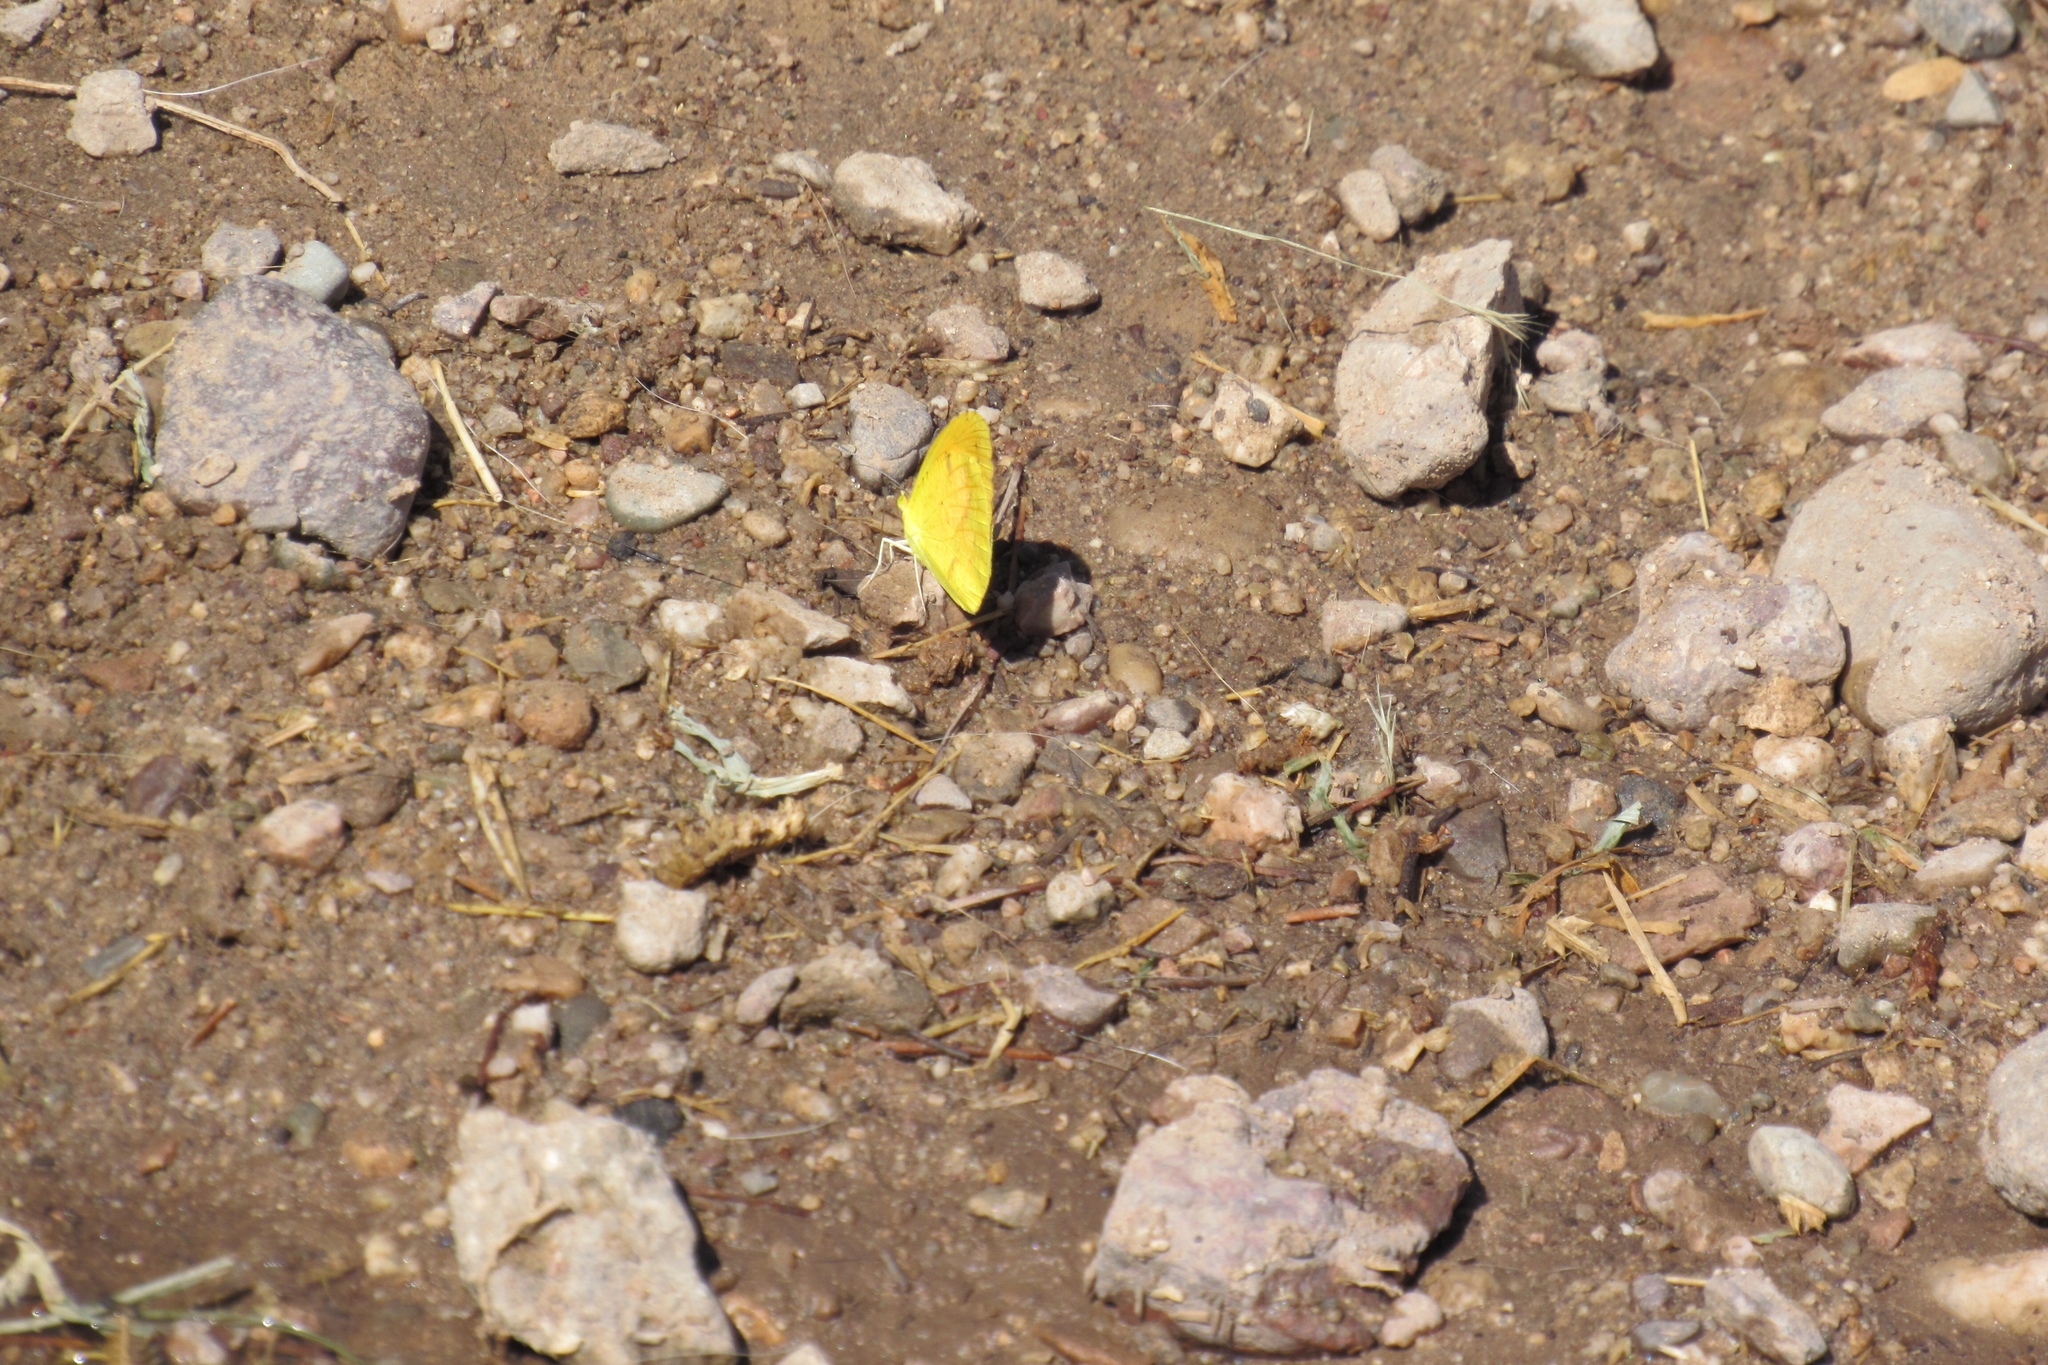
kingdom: Animalia
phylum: Arthropoda
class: Insecta
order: Lepidoptera
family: Pieridae
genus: Abaeis
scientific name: Abaeis nicippe
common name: Sleepy orange
